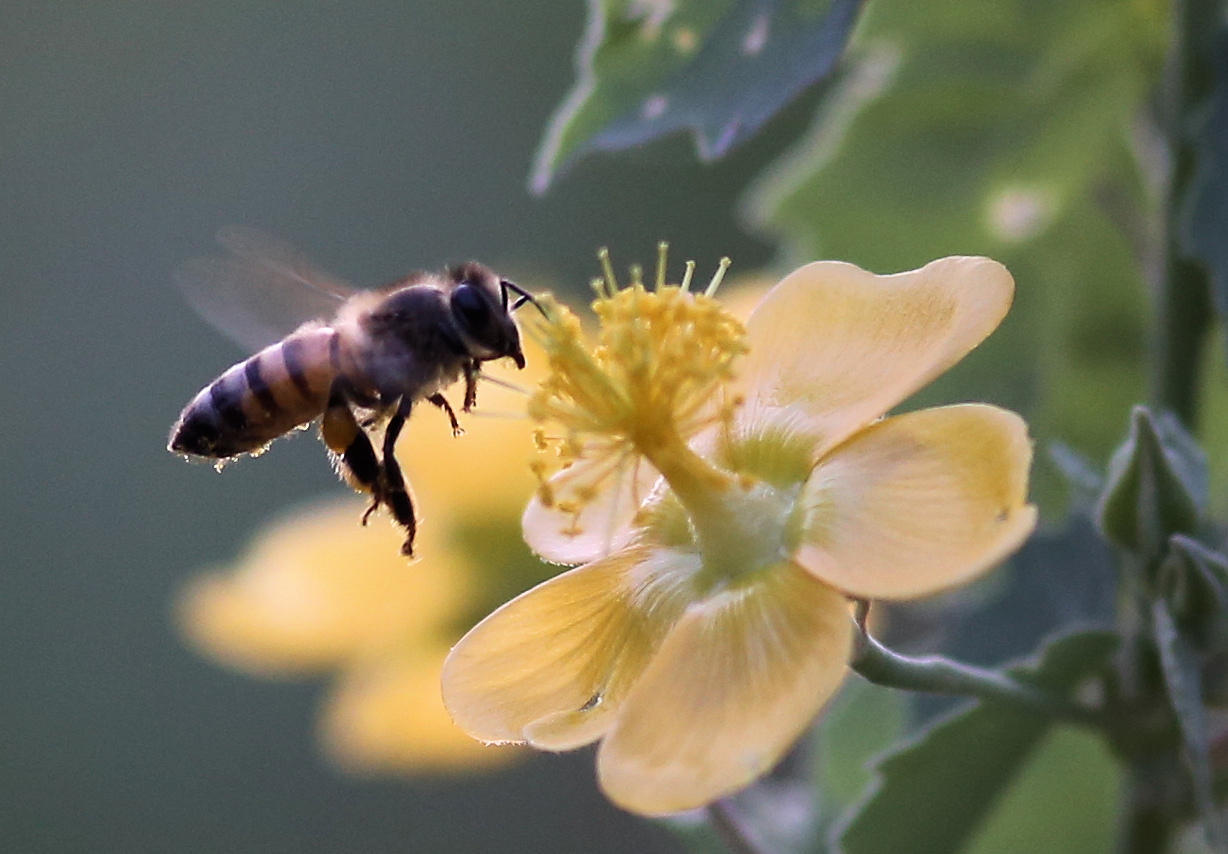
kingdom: Animalia
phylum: Arthropoda
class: Insecta
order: Hymenoptera
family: Apidae
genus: Apis
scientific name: Apis mellifera
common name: Honey bee
